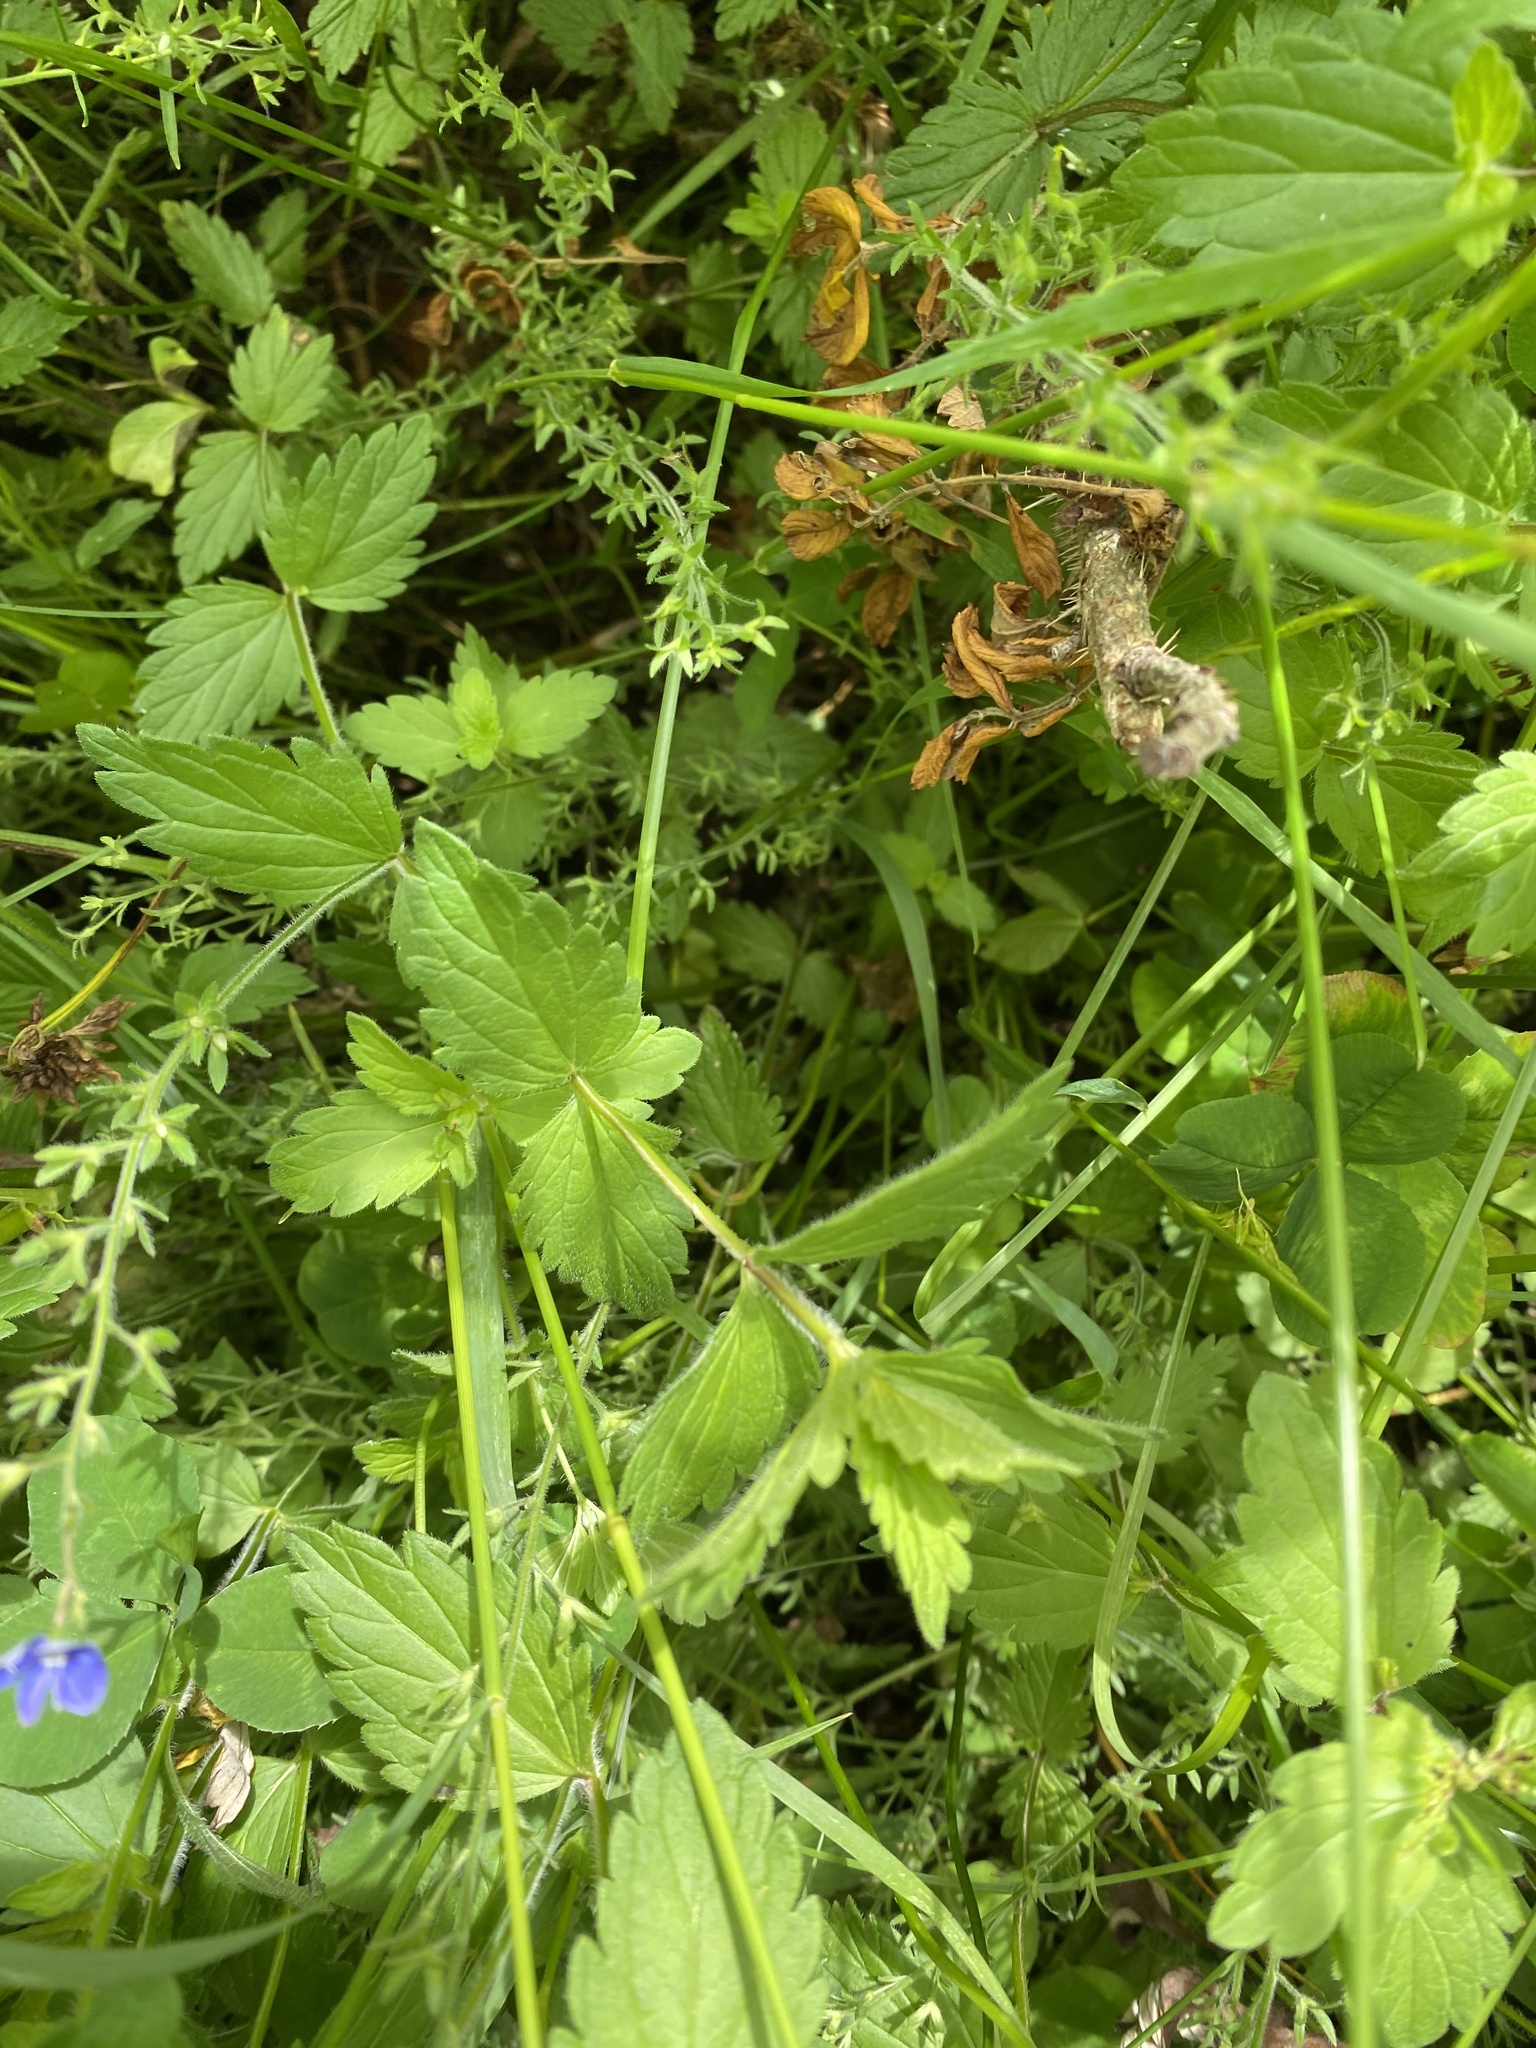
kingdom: Plantae
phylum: Tracheophyta
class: Magnoliopsida
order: Lamiales
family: Plantaginaceae
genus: Veronica
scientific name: Veronica chamaedrys
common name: Germander speedwell
